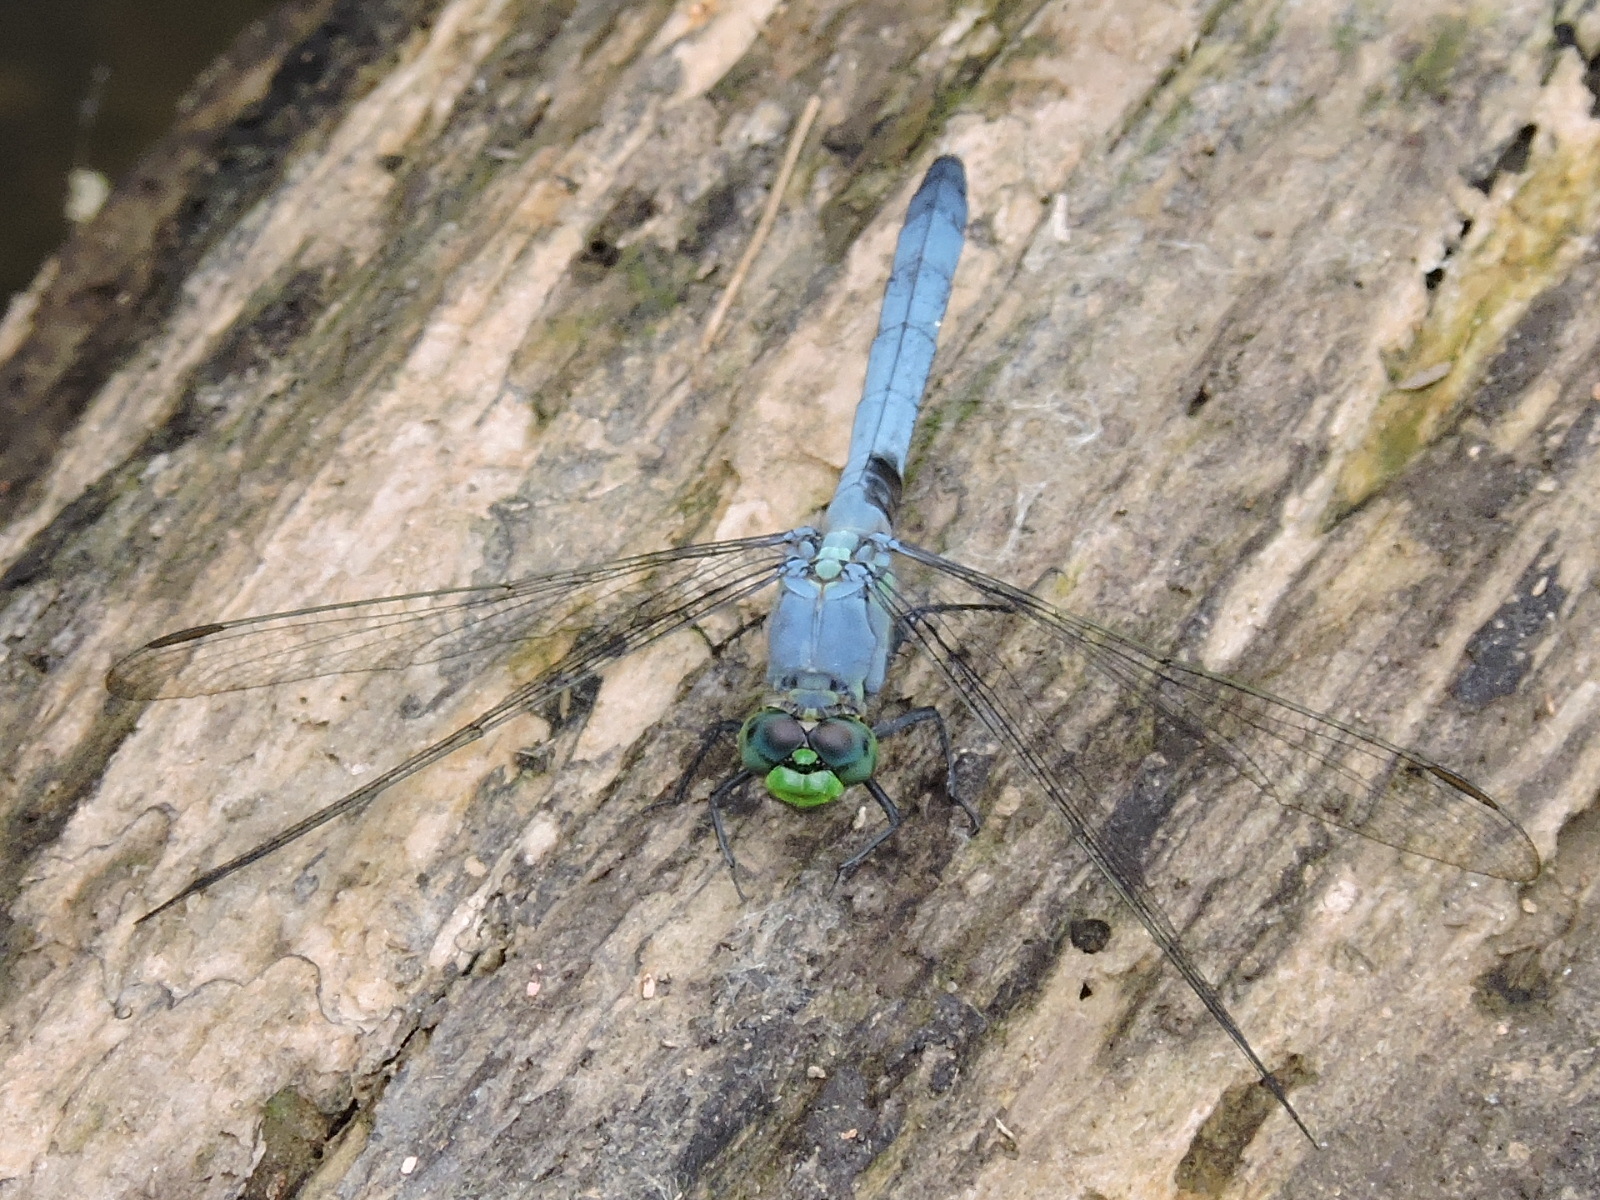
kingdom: Animalia
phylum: Arthropoda
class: Insecta
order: Odonata
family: Libellulidae
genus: Erythemis
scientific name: Erythemis simplicicollis
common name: Eastern pondhawk
